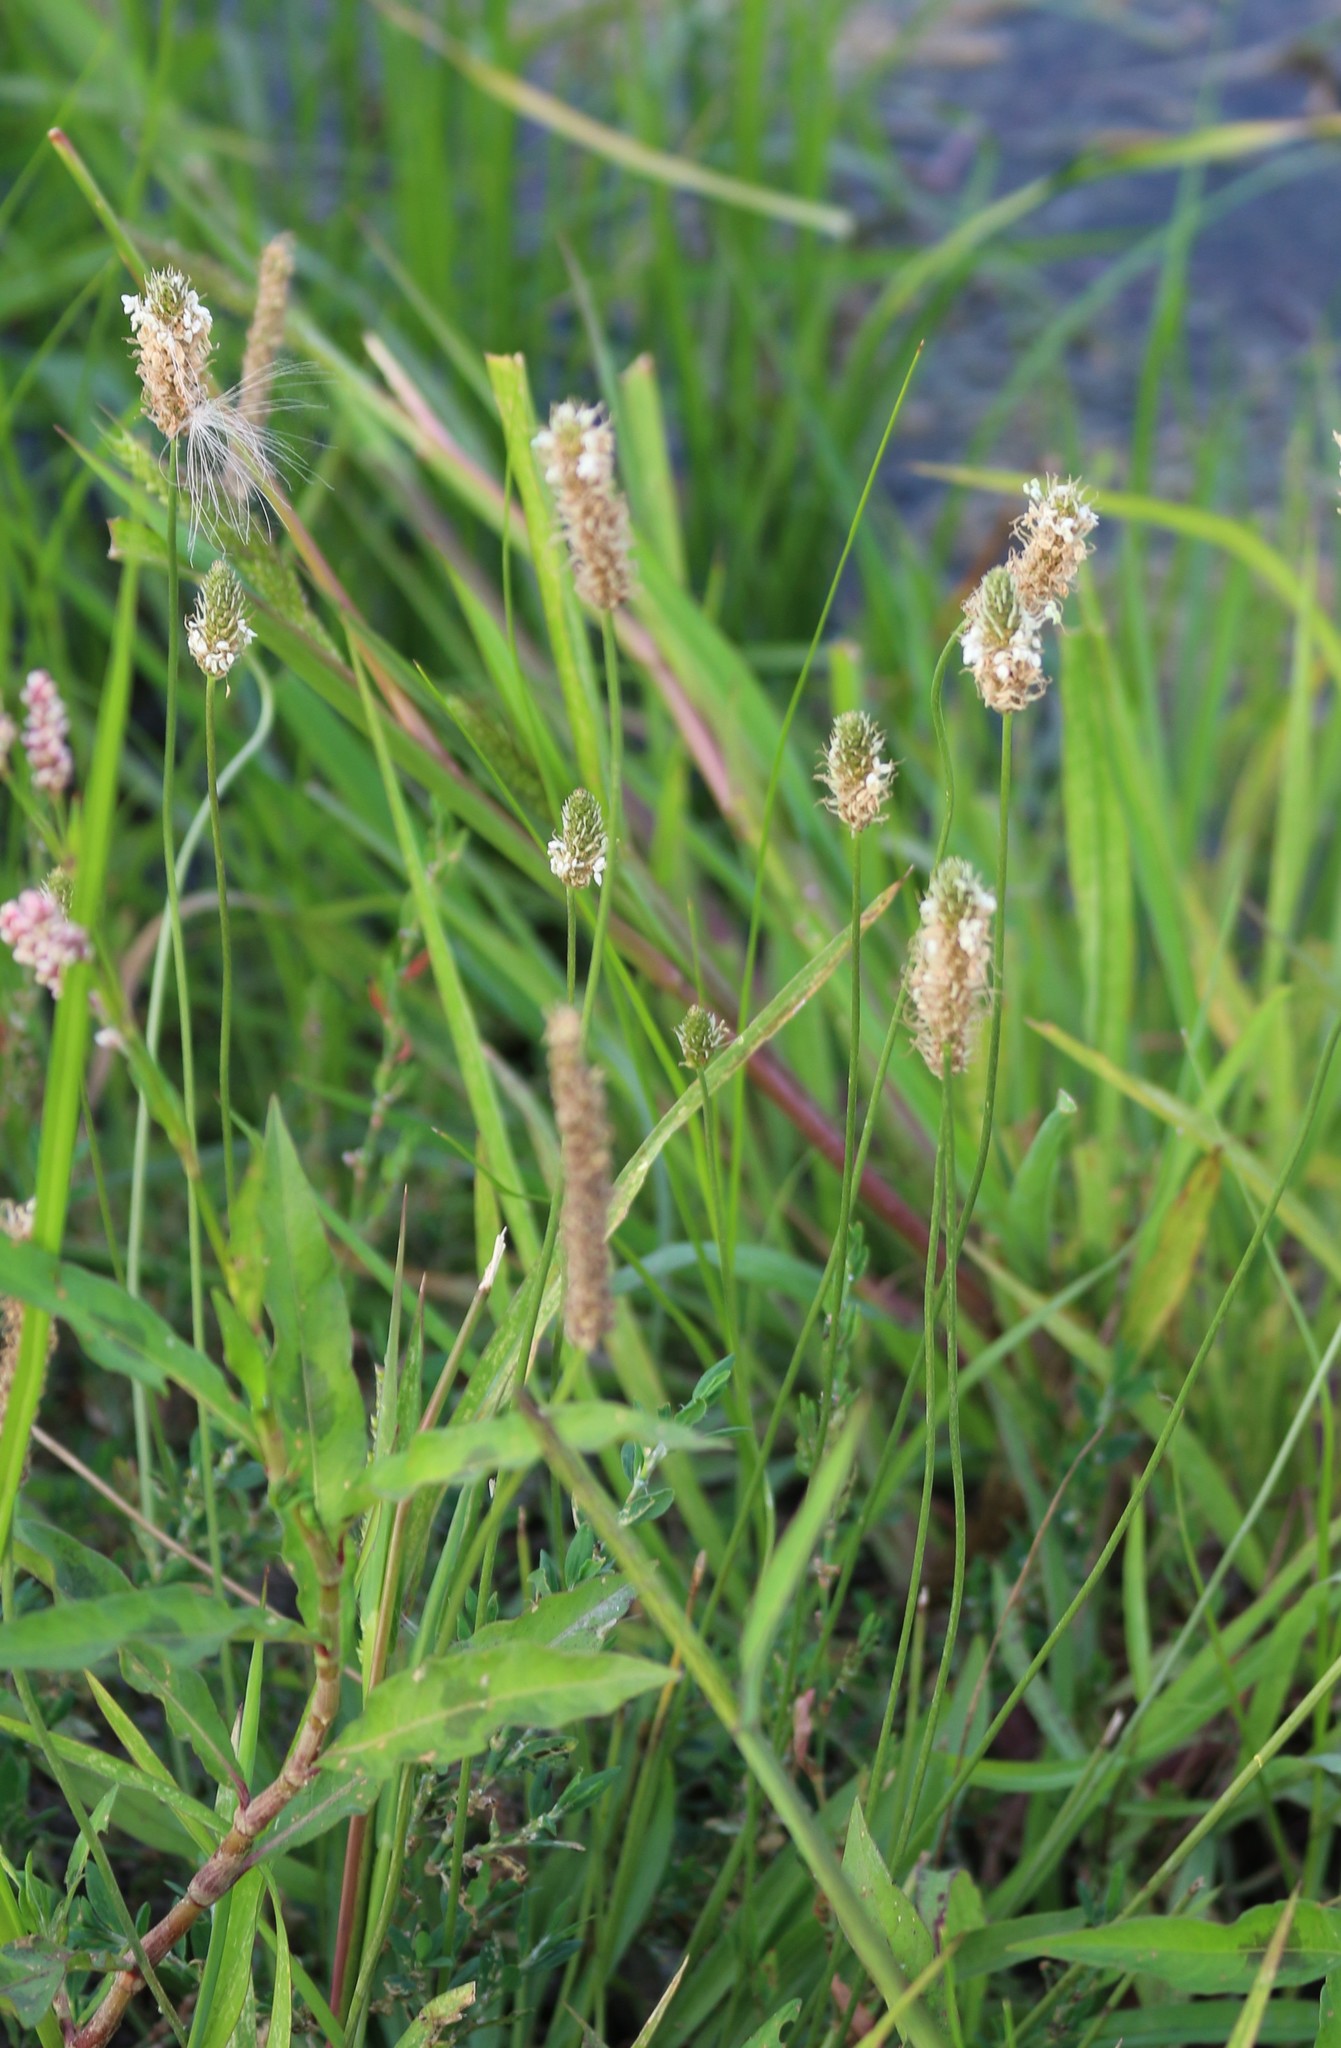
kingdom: Plantae
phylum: Tracheophyta
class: Magnoliopsida
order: Lamiales
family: Plantaginaceae
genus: Plantago
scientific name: Plantago lanceolata
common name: Ribwort plantain
